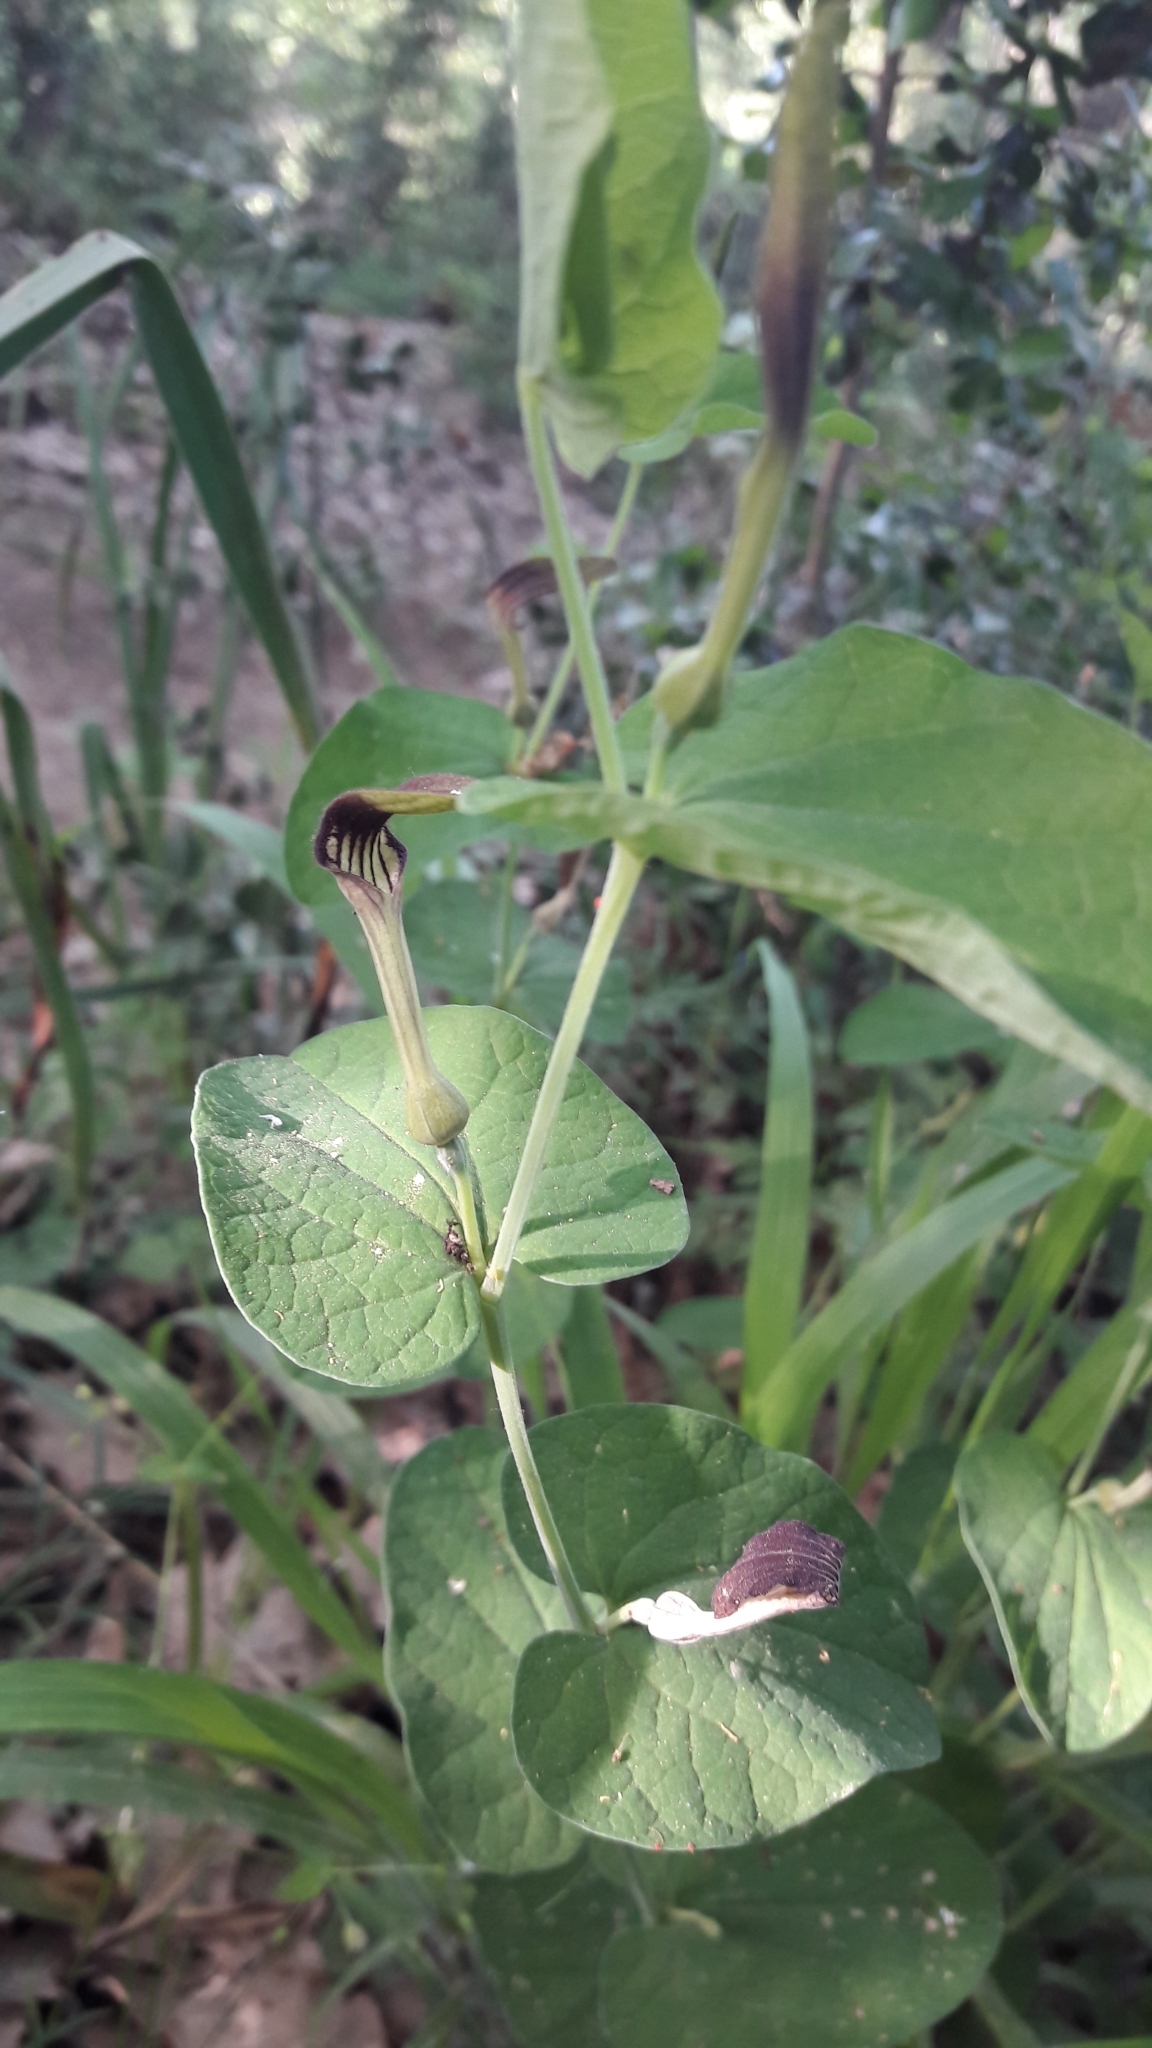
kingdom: Plantae
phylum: Tracheophyta
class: Magnoliopsida
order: Piperales
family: Aristolochiaceae
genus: Aristolochia
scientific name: Aristolochia rotunda
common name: Smearwort
